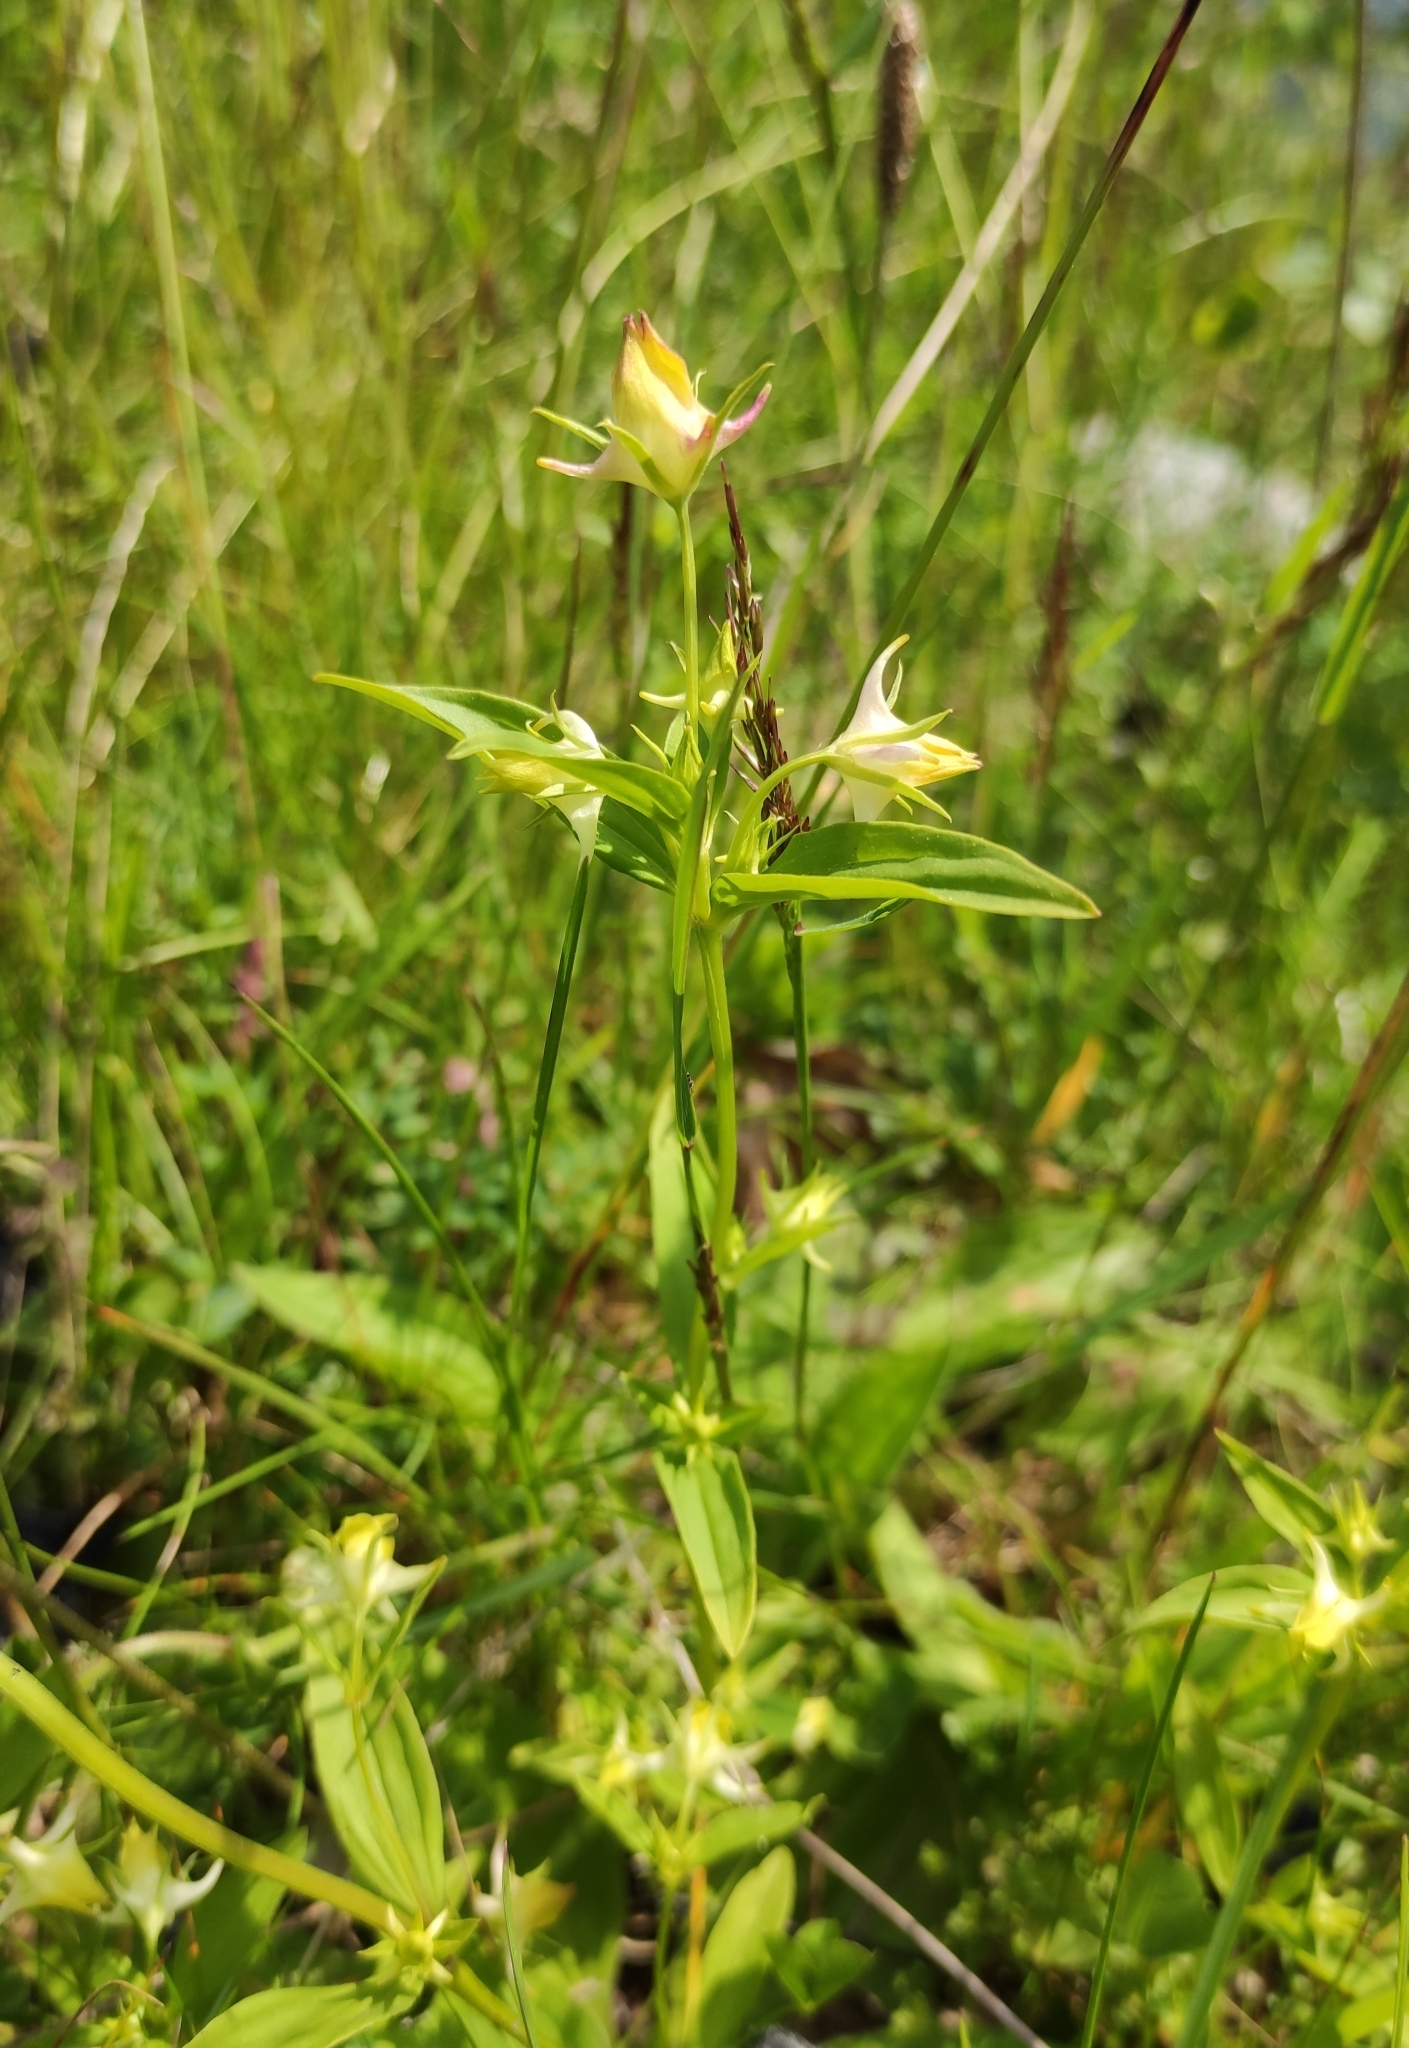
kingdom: Plantae
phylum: Tracheophyta
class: Magnoliopsida
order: Gentianales
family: Gentianaceae
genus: Halenia
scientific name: Halenia corniculata
